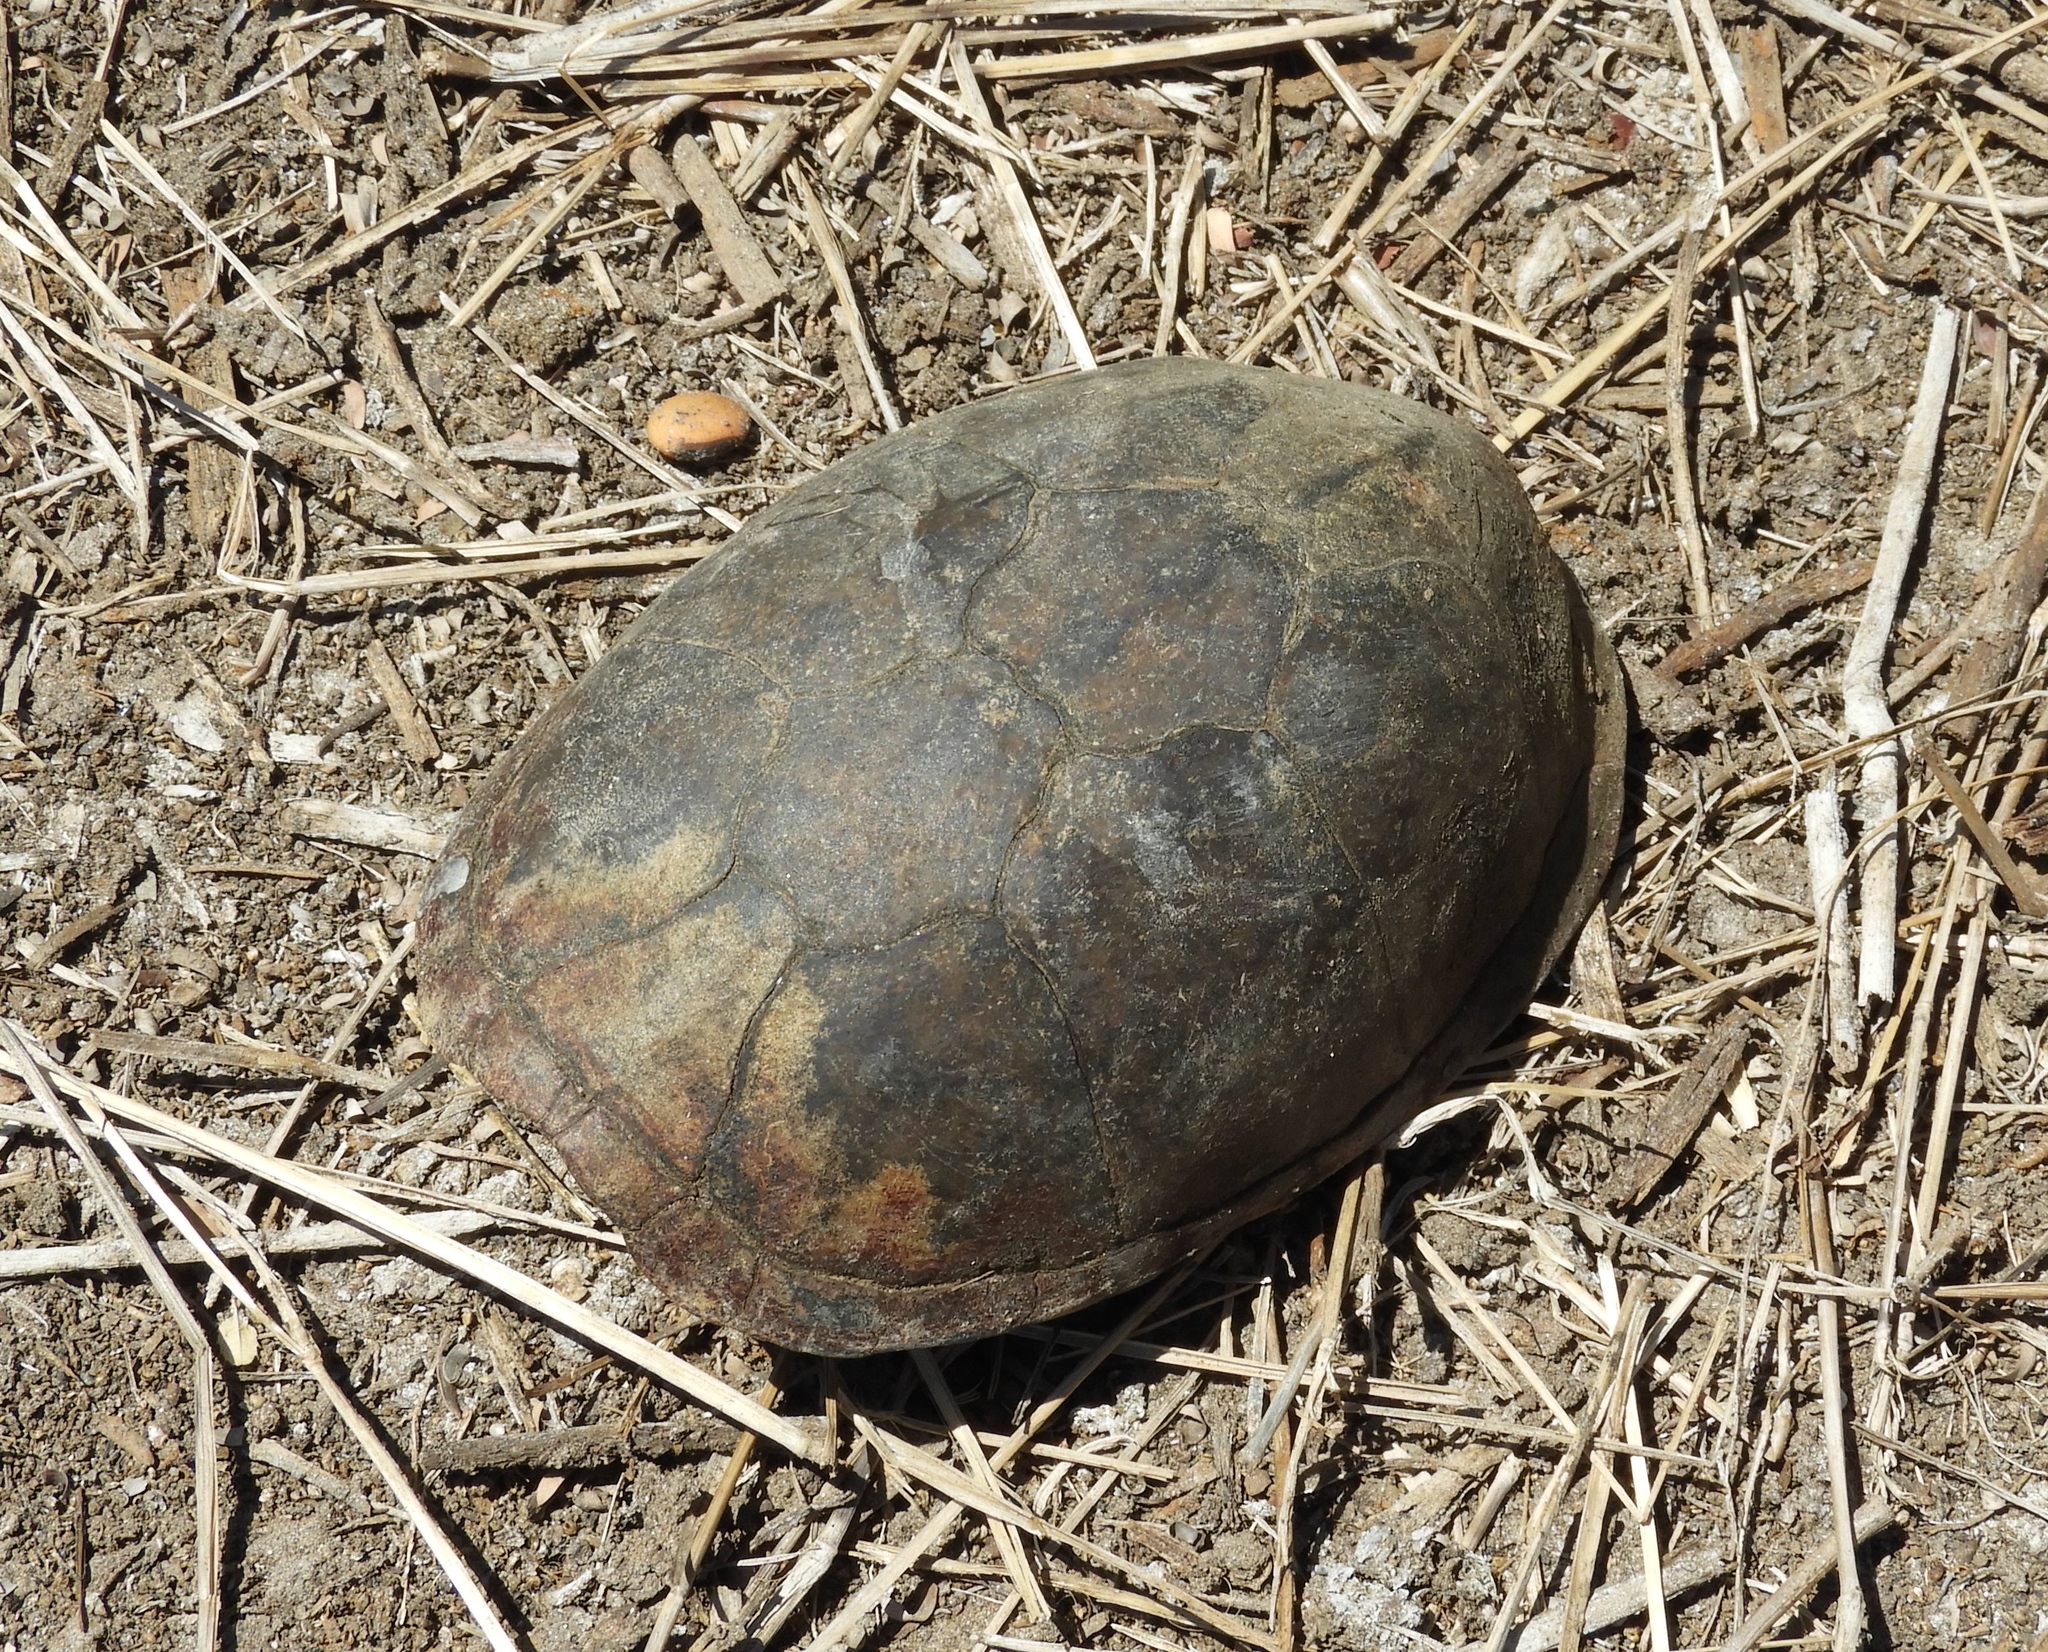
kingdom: Animalia
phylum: Chordata
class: Testudines
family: Kinosternidae
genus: Kinosternon
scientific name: Kinosternon integrum
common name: Mexican mud turtle
